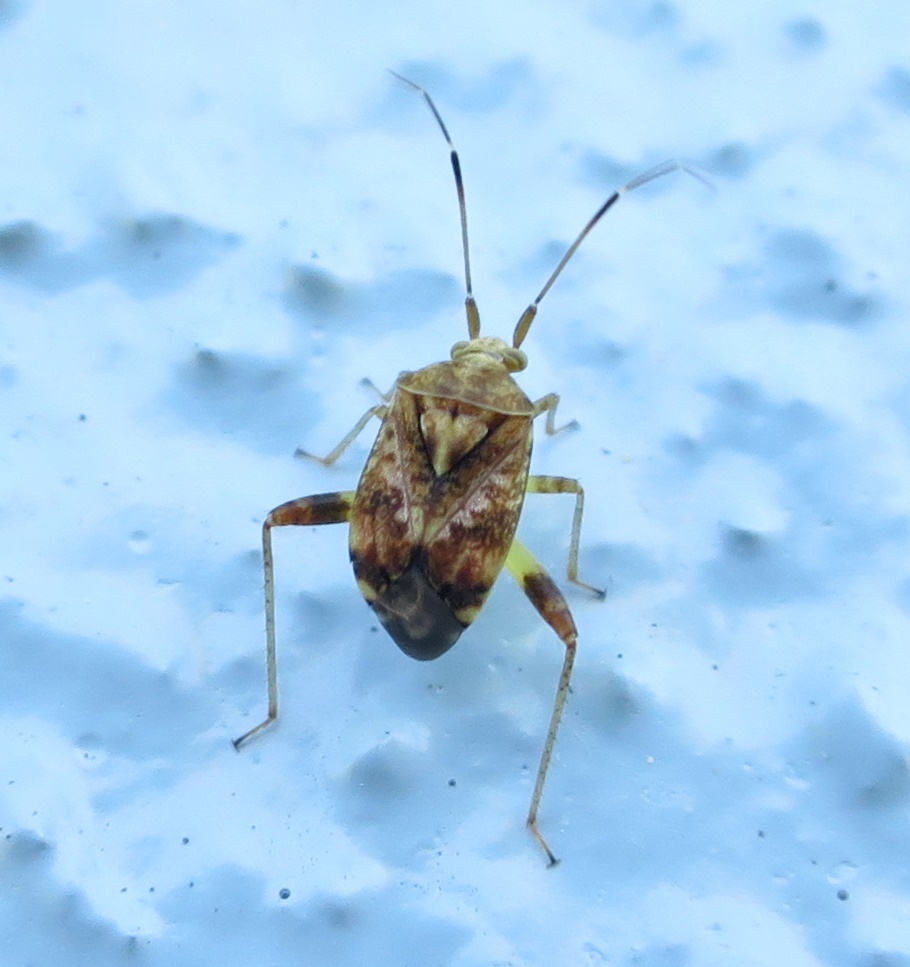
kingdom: Animalia
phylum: Arthropoda
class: Insecta
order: Hemiptera
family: Miridae
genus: Sidnia
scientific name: Sidnia kinbergi
